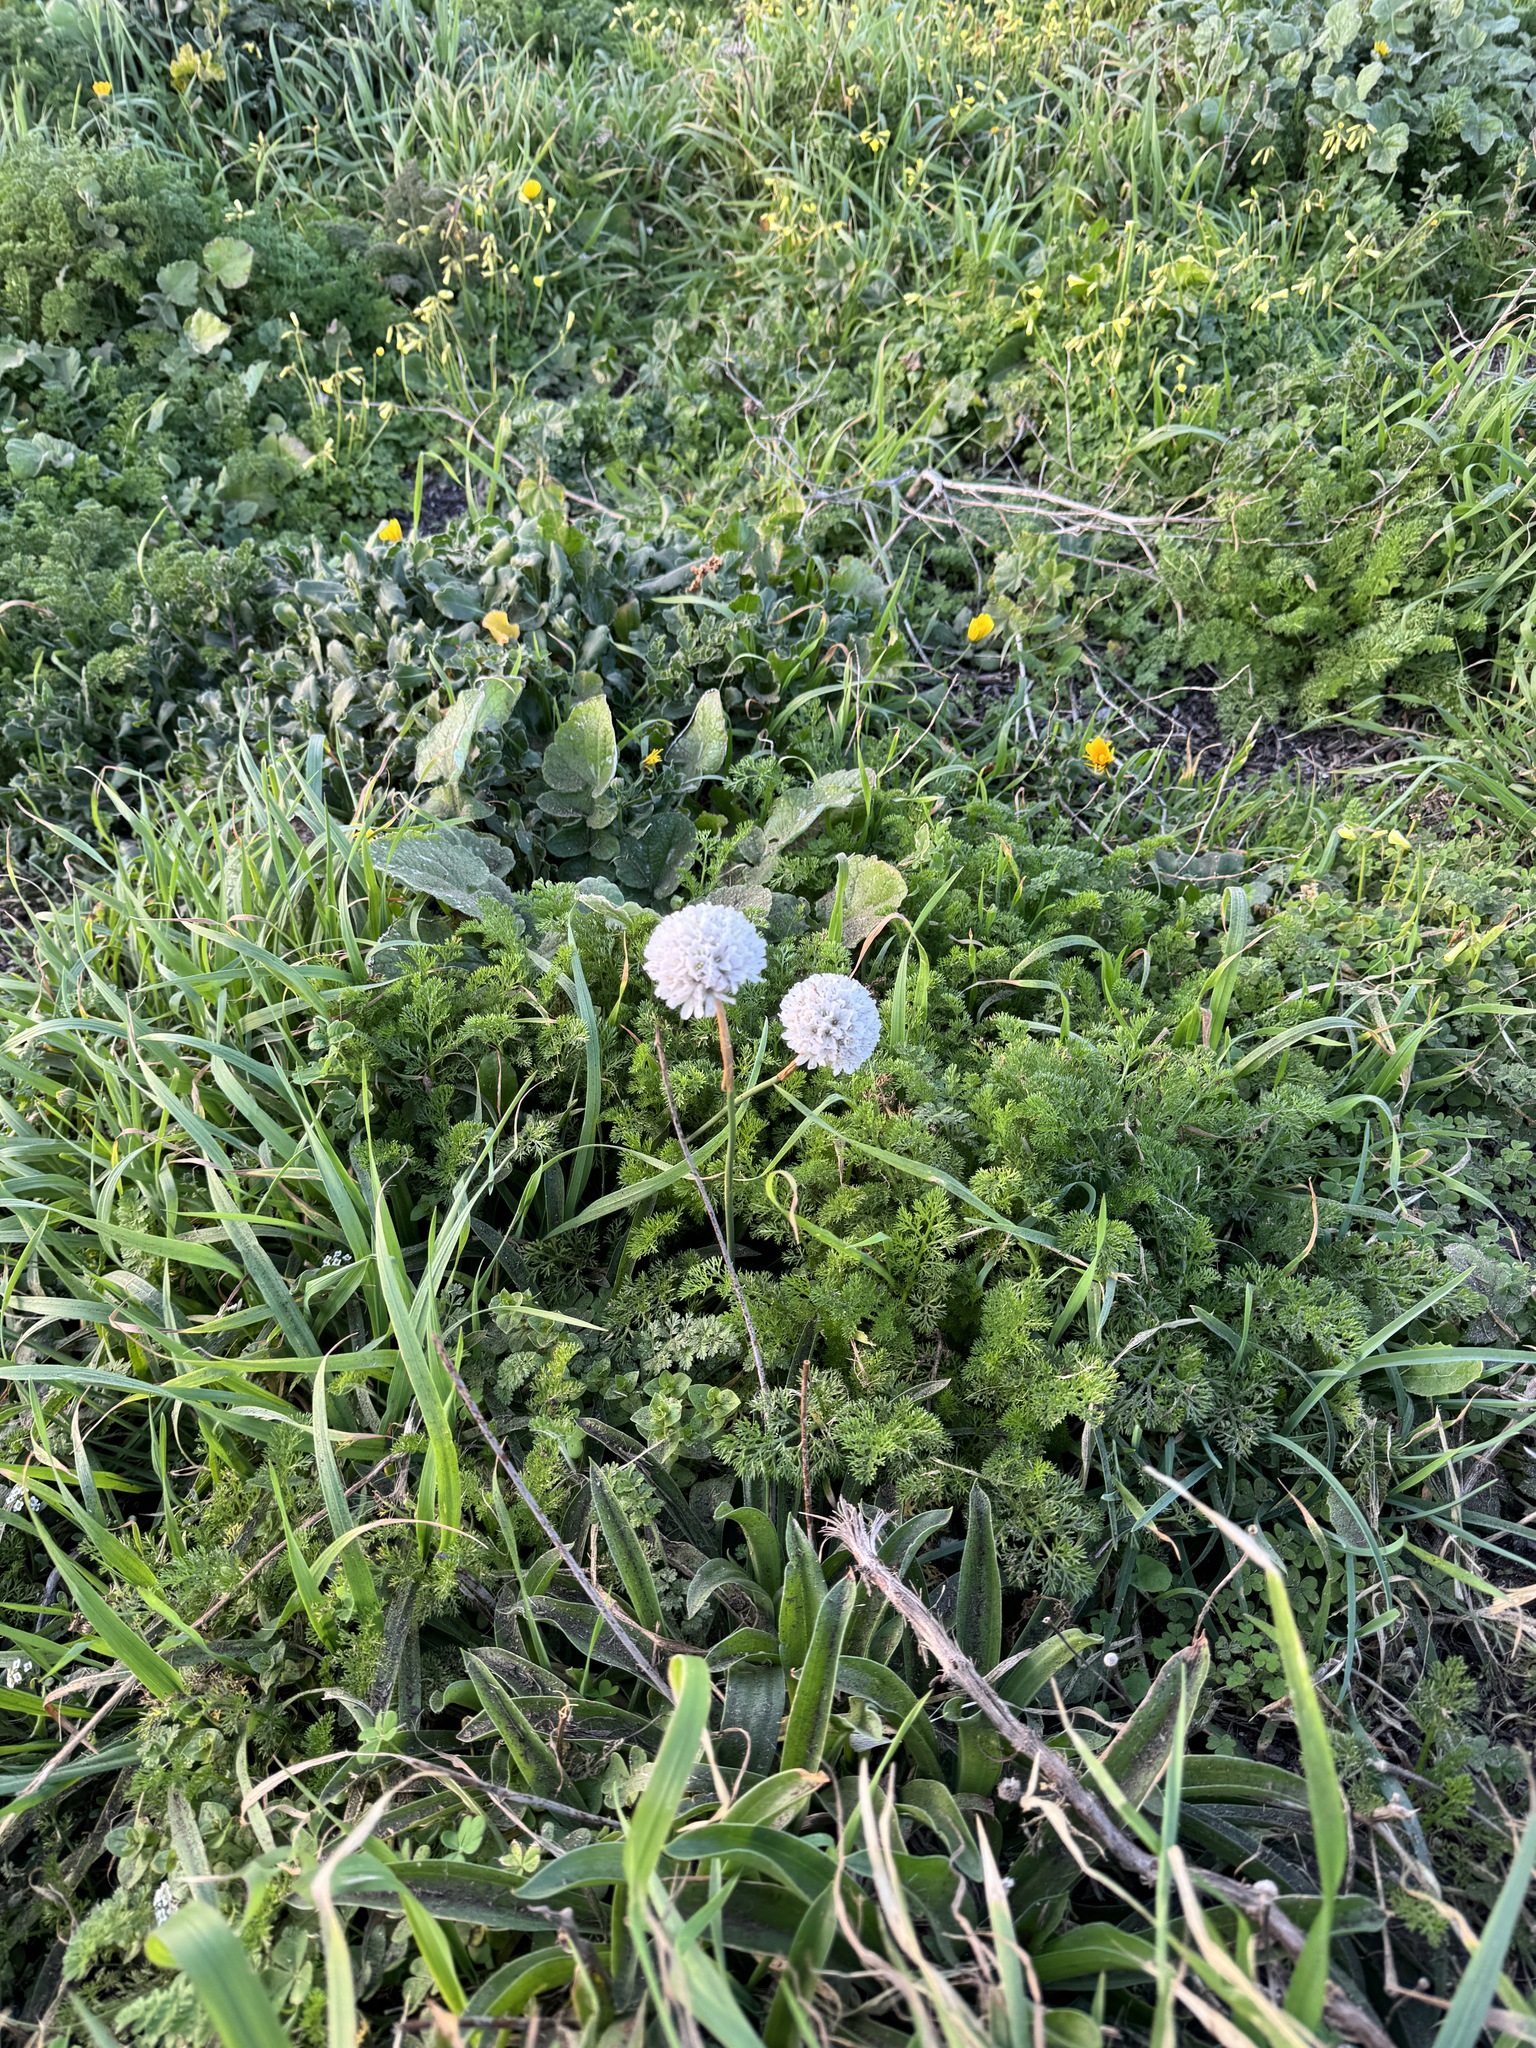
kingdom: Plantae
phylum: Tracheophyta
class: Magnoliopsida
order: Caryophyllales
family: Plumbaginaceae
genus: Armeria
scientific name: Armeria pseudarmeria
